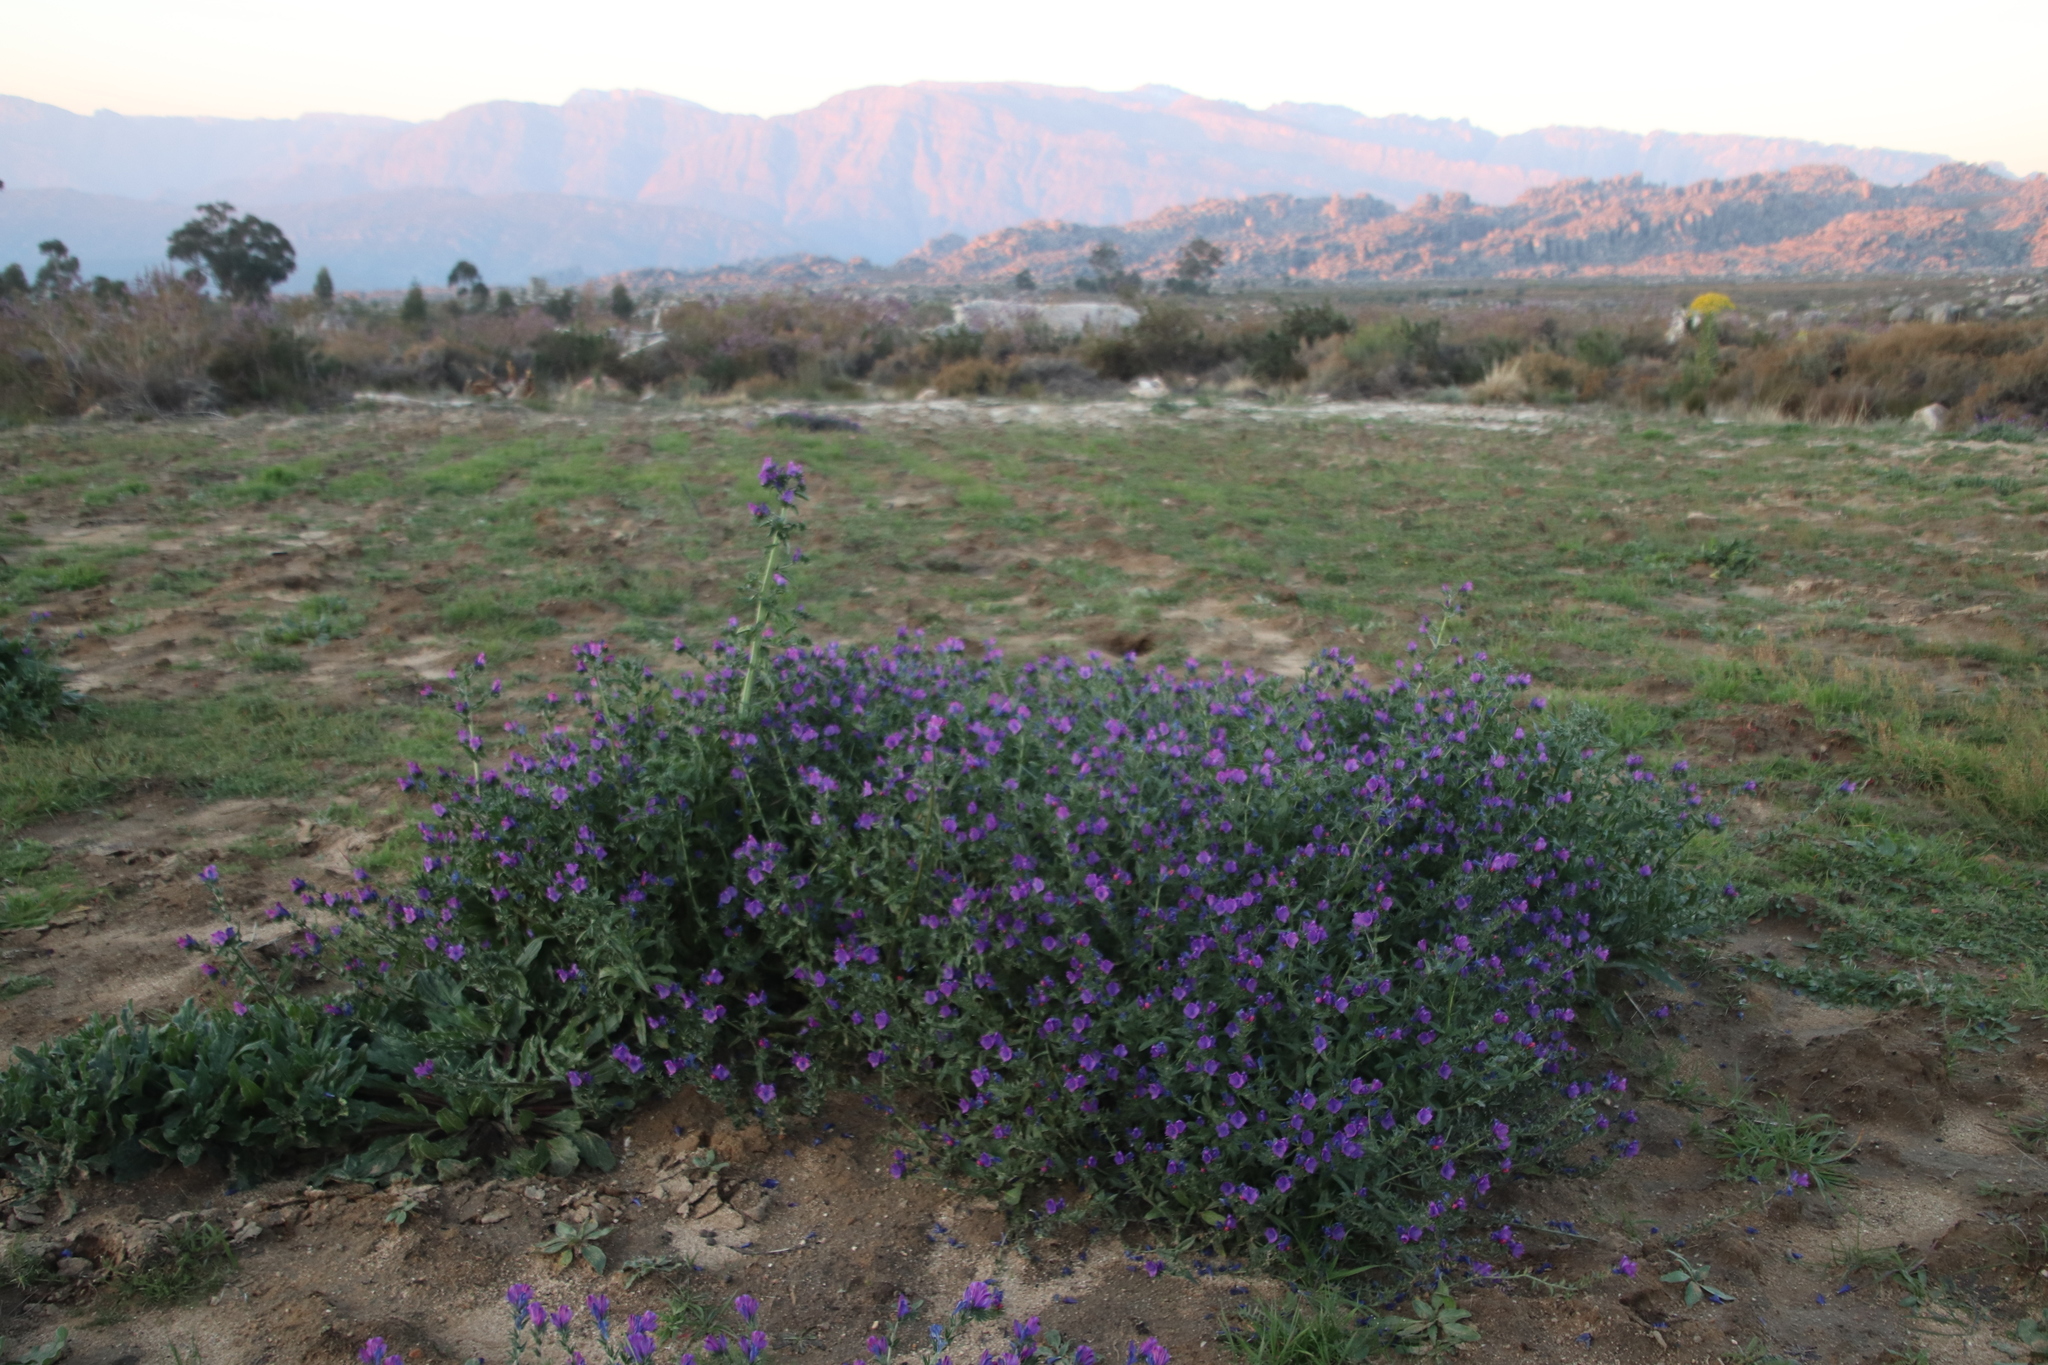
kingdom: Plantae
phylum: Tracheophyta
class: Magnoliopsida
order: Boraginales
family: Boraginaceae
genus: Echium
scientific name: Echium plantagineum
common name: Purple viper's-bugloss
